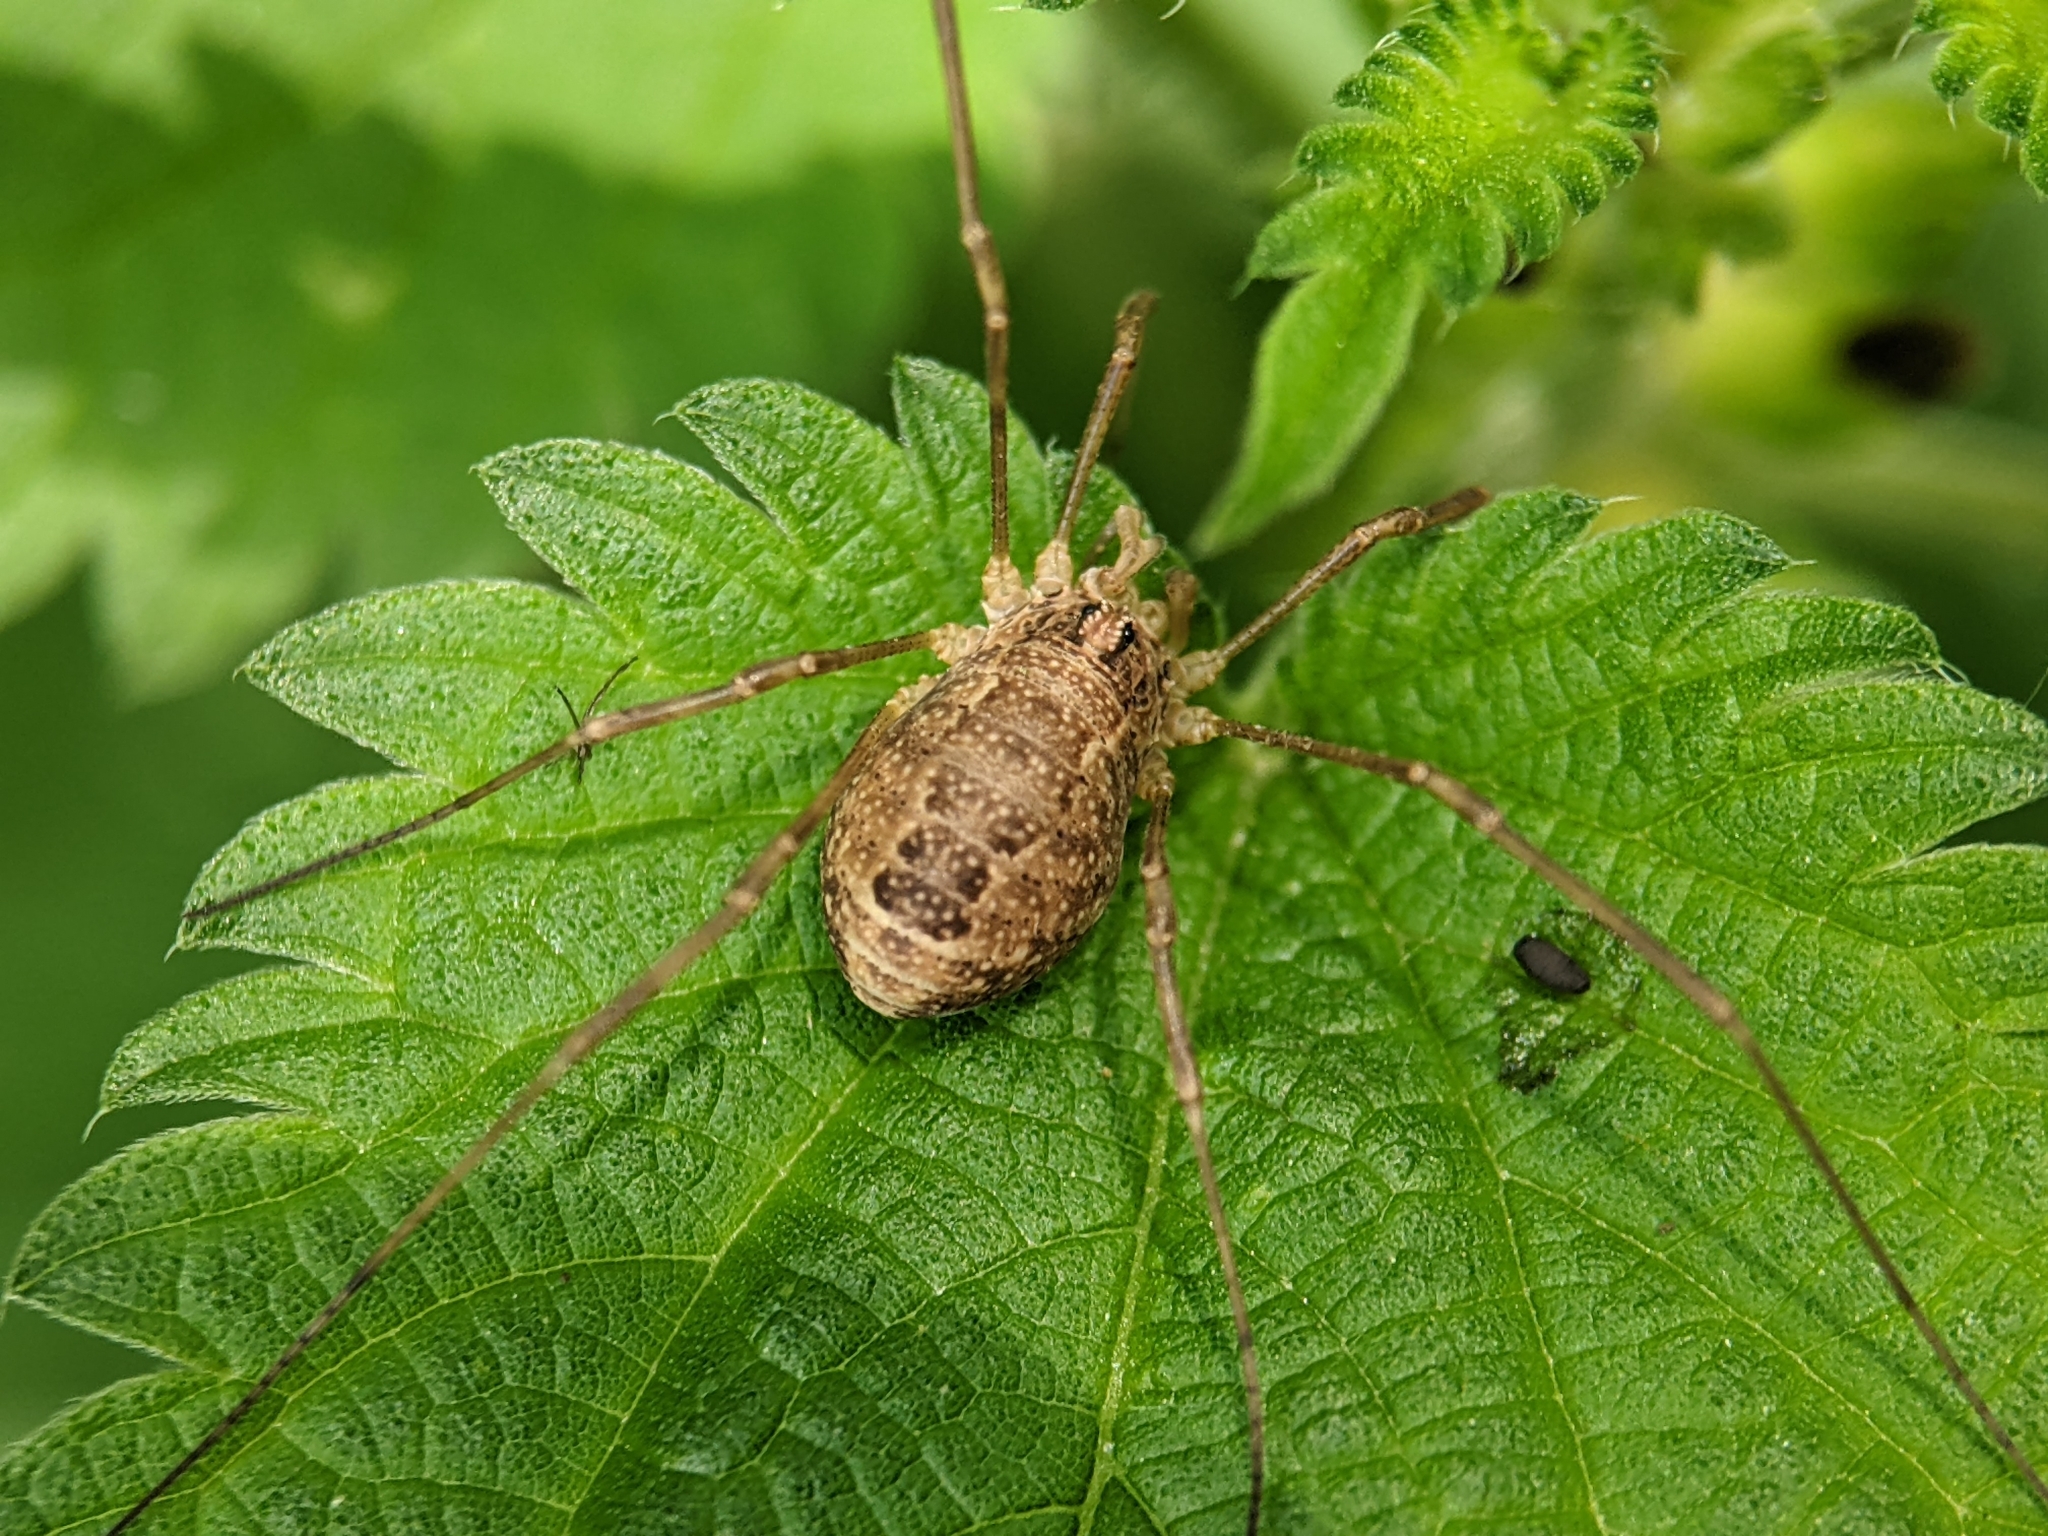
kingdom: Animalia
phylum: Arthropoda
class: Arachnida
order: Opiliones
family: Phalangiidae
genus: Rilaena
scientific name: Rilaena triangularis
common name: Spring harvestman
